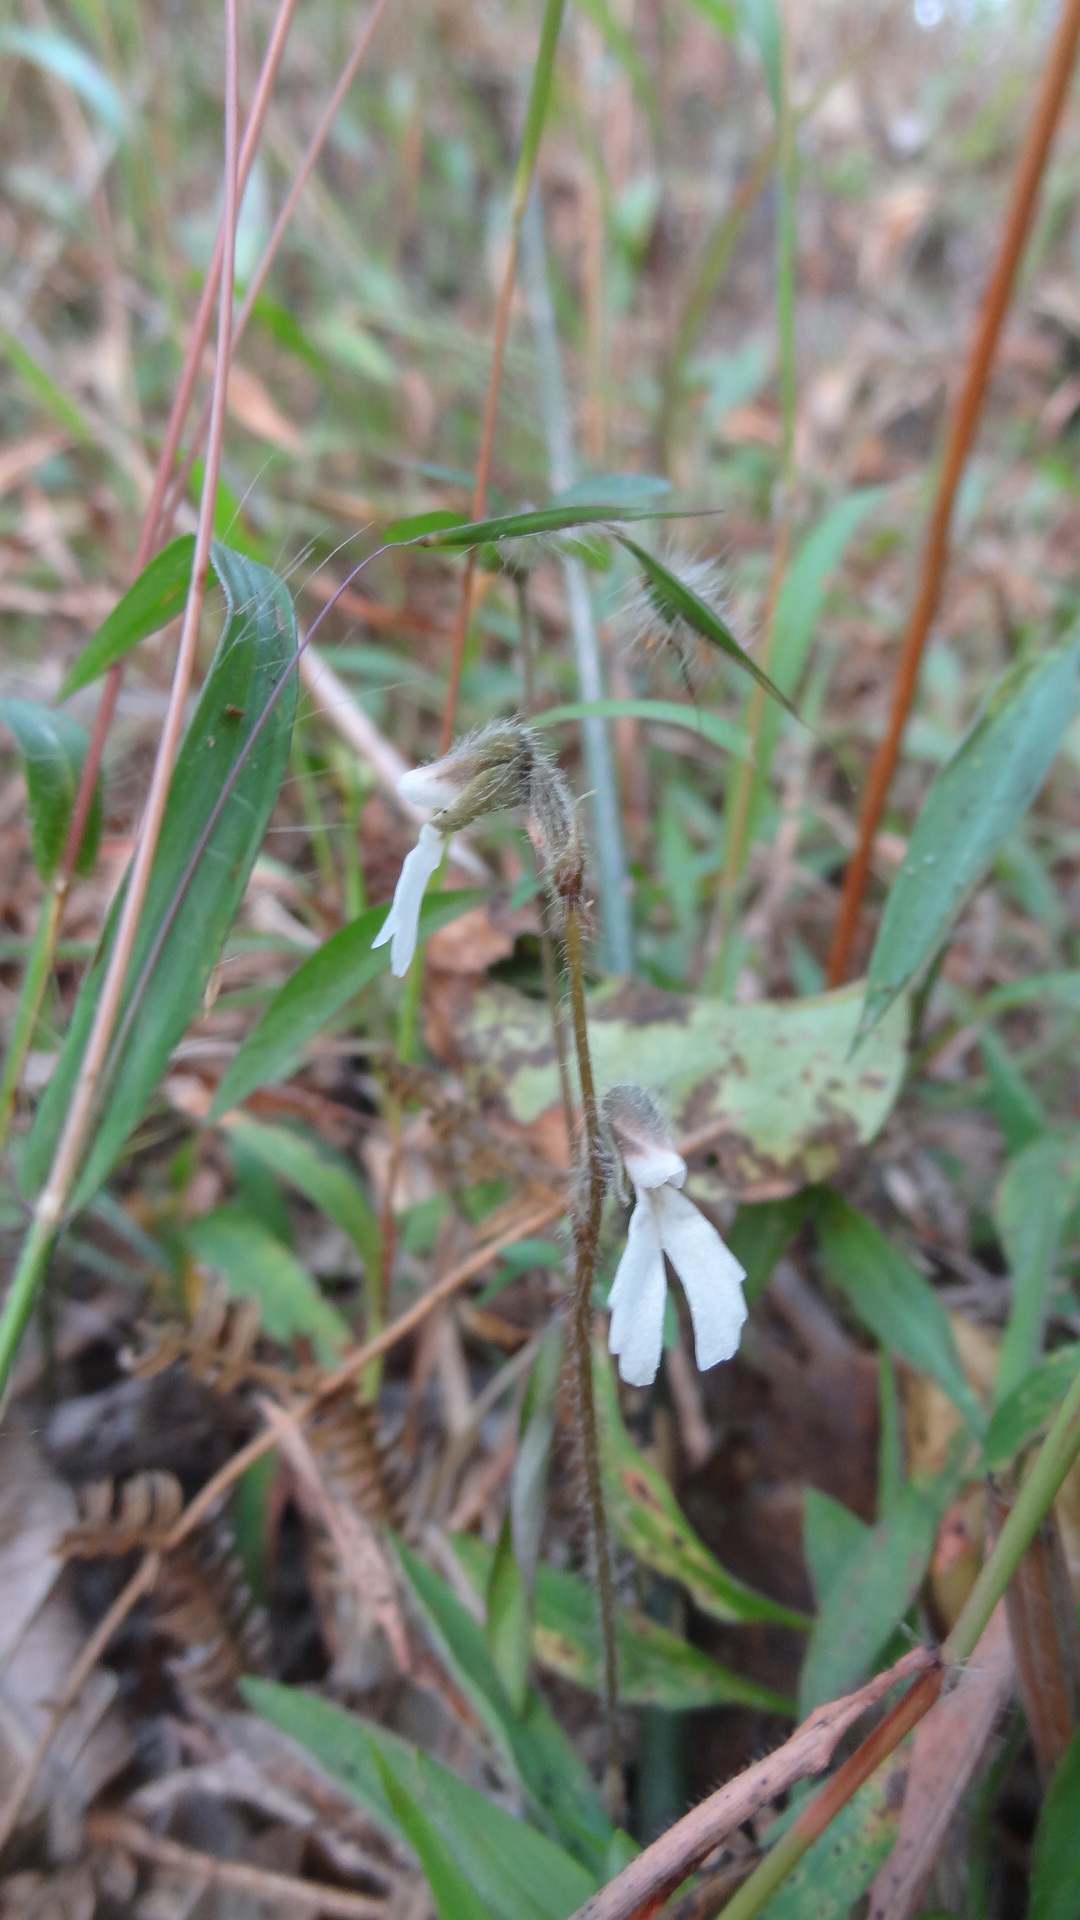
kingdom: Plantae
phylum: Tracheophyta
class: Liliopsida
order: Asparagales
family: Orchidaceae
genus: Zeuxine
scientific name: Zeuxine longilabris
